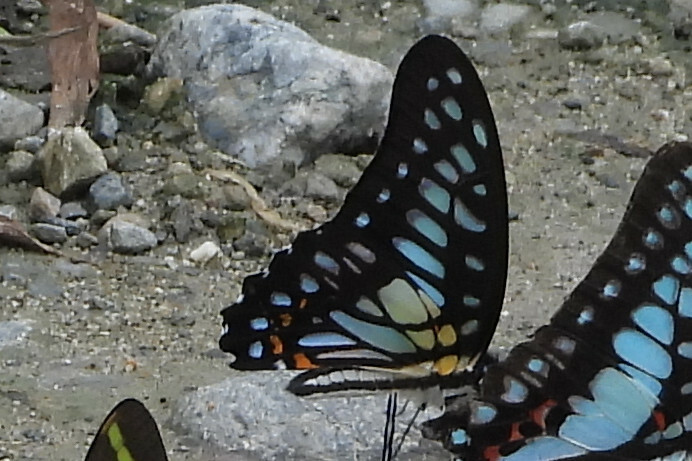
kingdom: Animalia
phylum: Arthropoda
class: Insecta
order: Lepidoptera
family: Papilionidae
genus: Graphium
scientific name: Graphium chironides
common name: Veined jay
